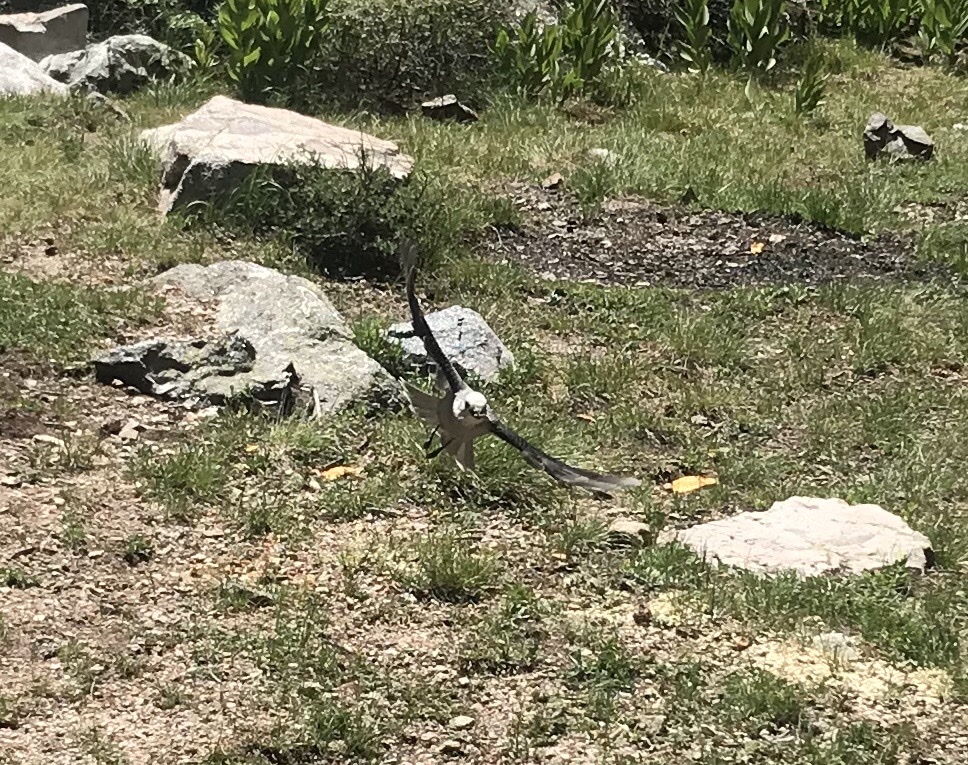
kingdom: Animalia
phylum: Chordata
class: Aves
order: Passeriformes
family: Corvidae
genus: Perisoreus
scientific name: Perisoreus canadensis
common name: Gray jay
